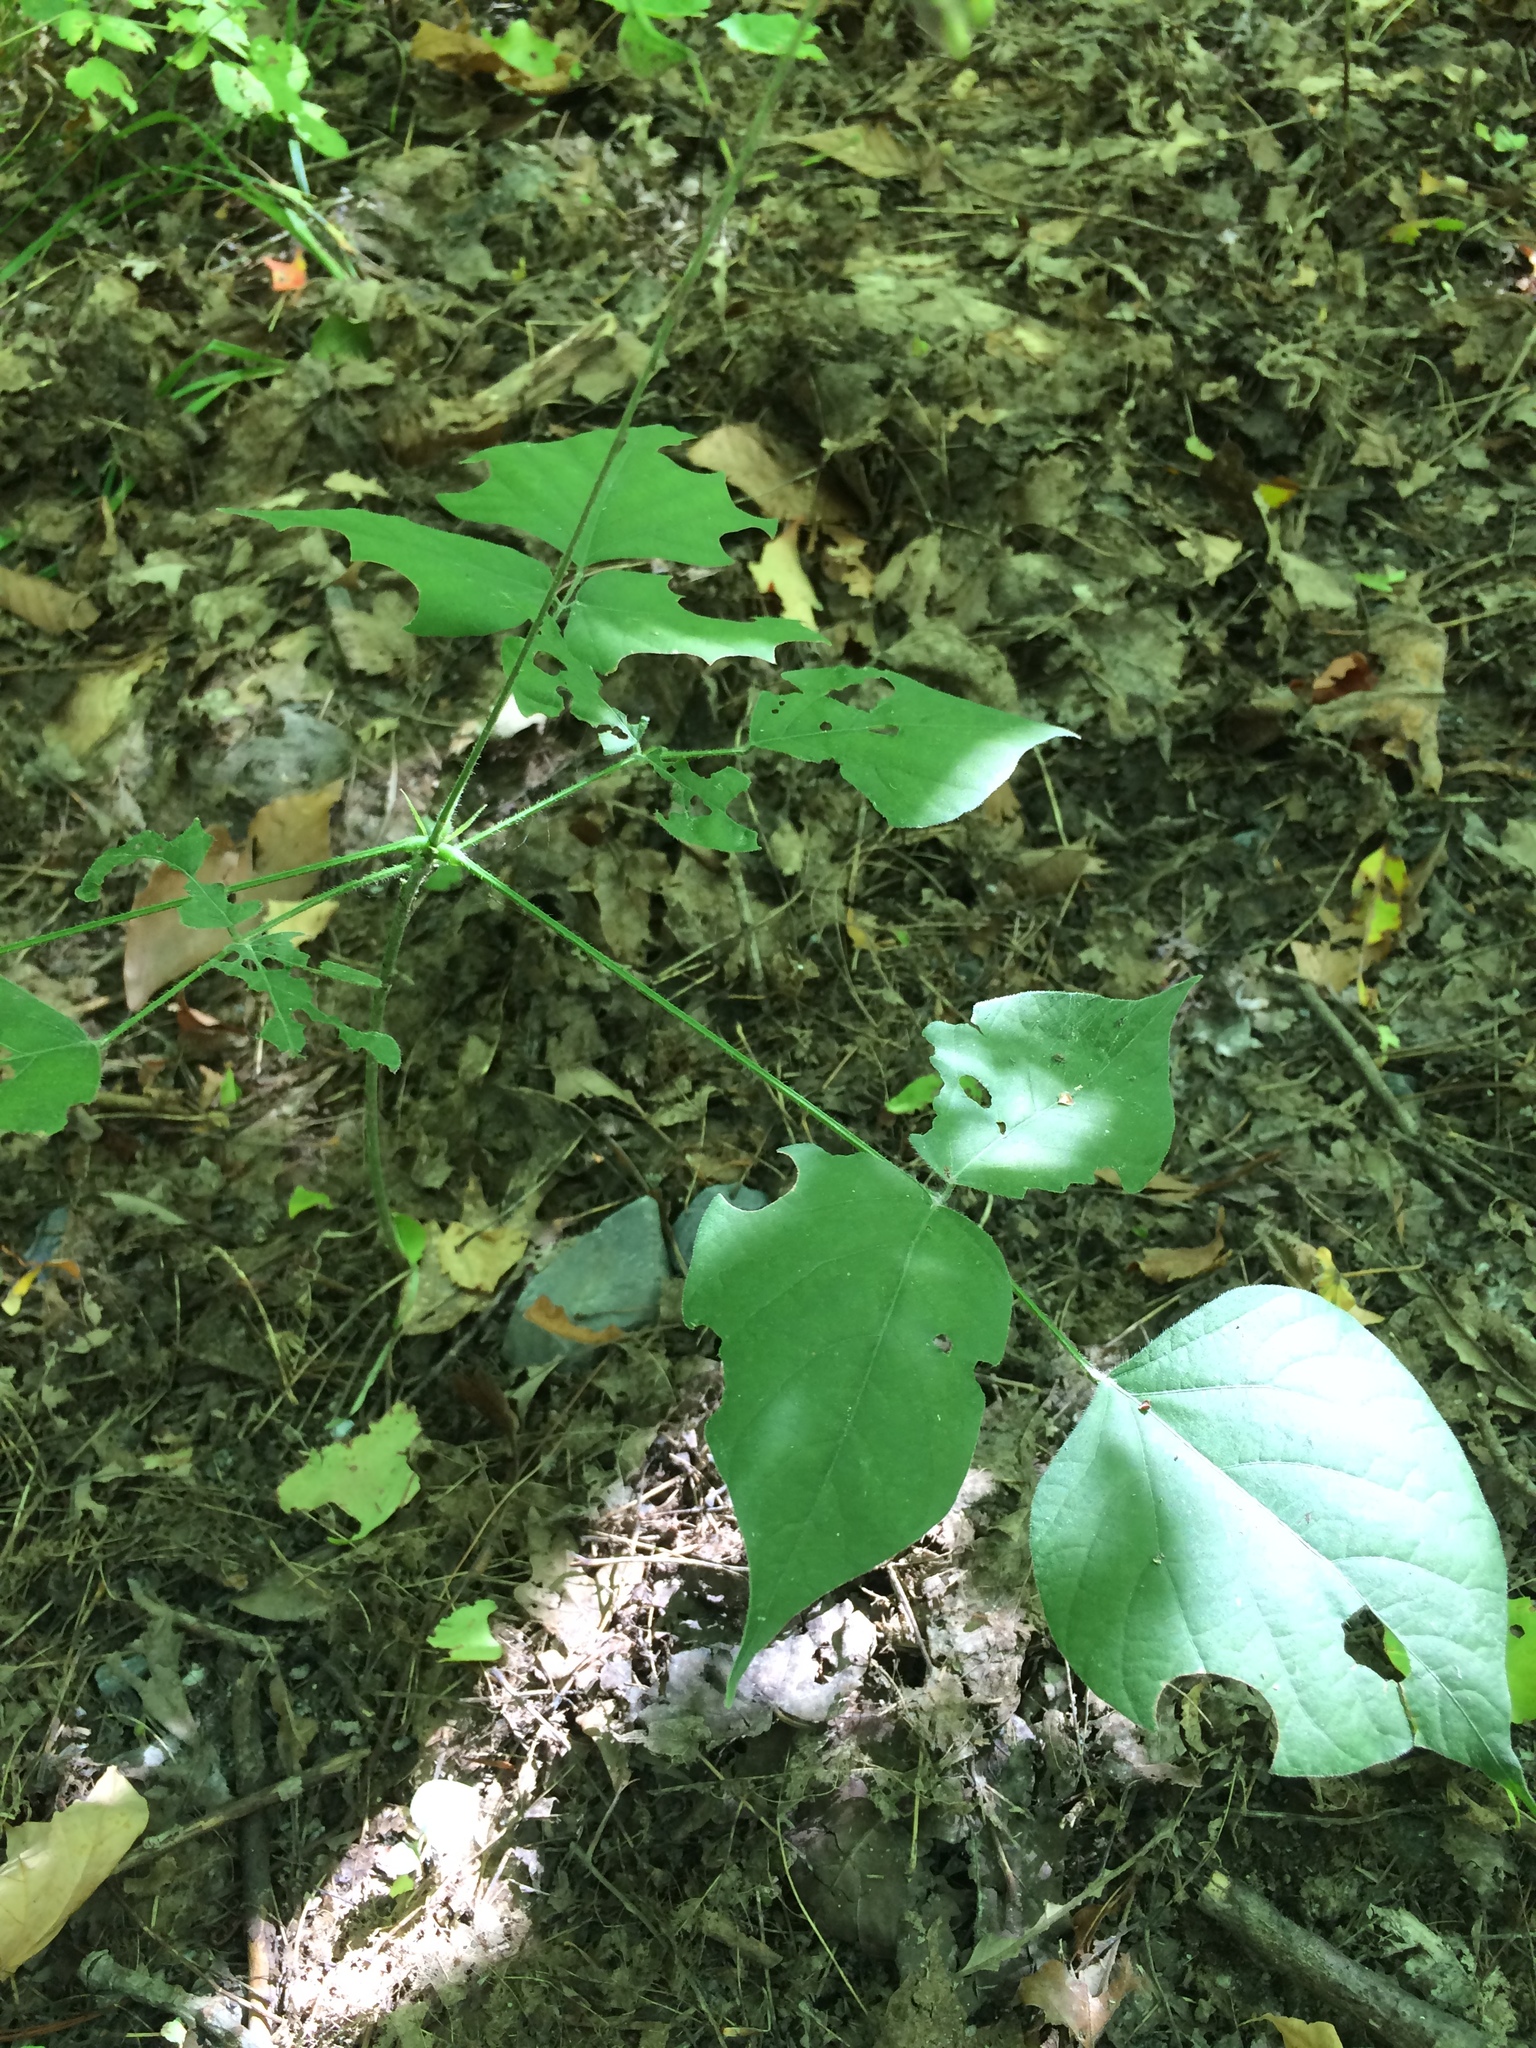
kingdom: Plantae
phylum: Tracheophyta
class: Magnoliopsida
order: Fabales
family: Fabaceae
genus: Hylodesmum
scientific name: Hylodesmum glutinosum
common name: Clustered-leaved tick-trefoil
